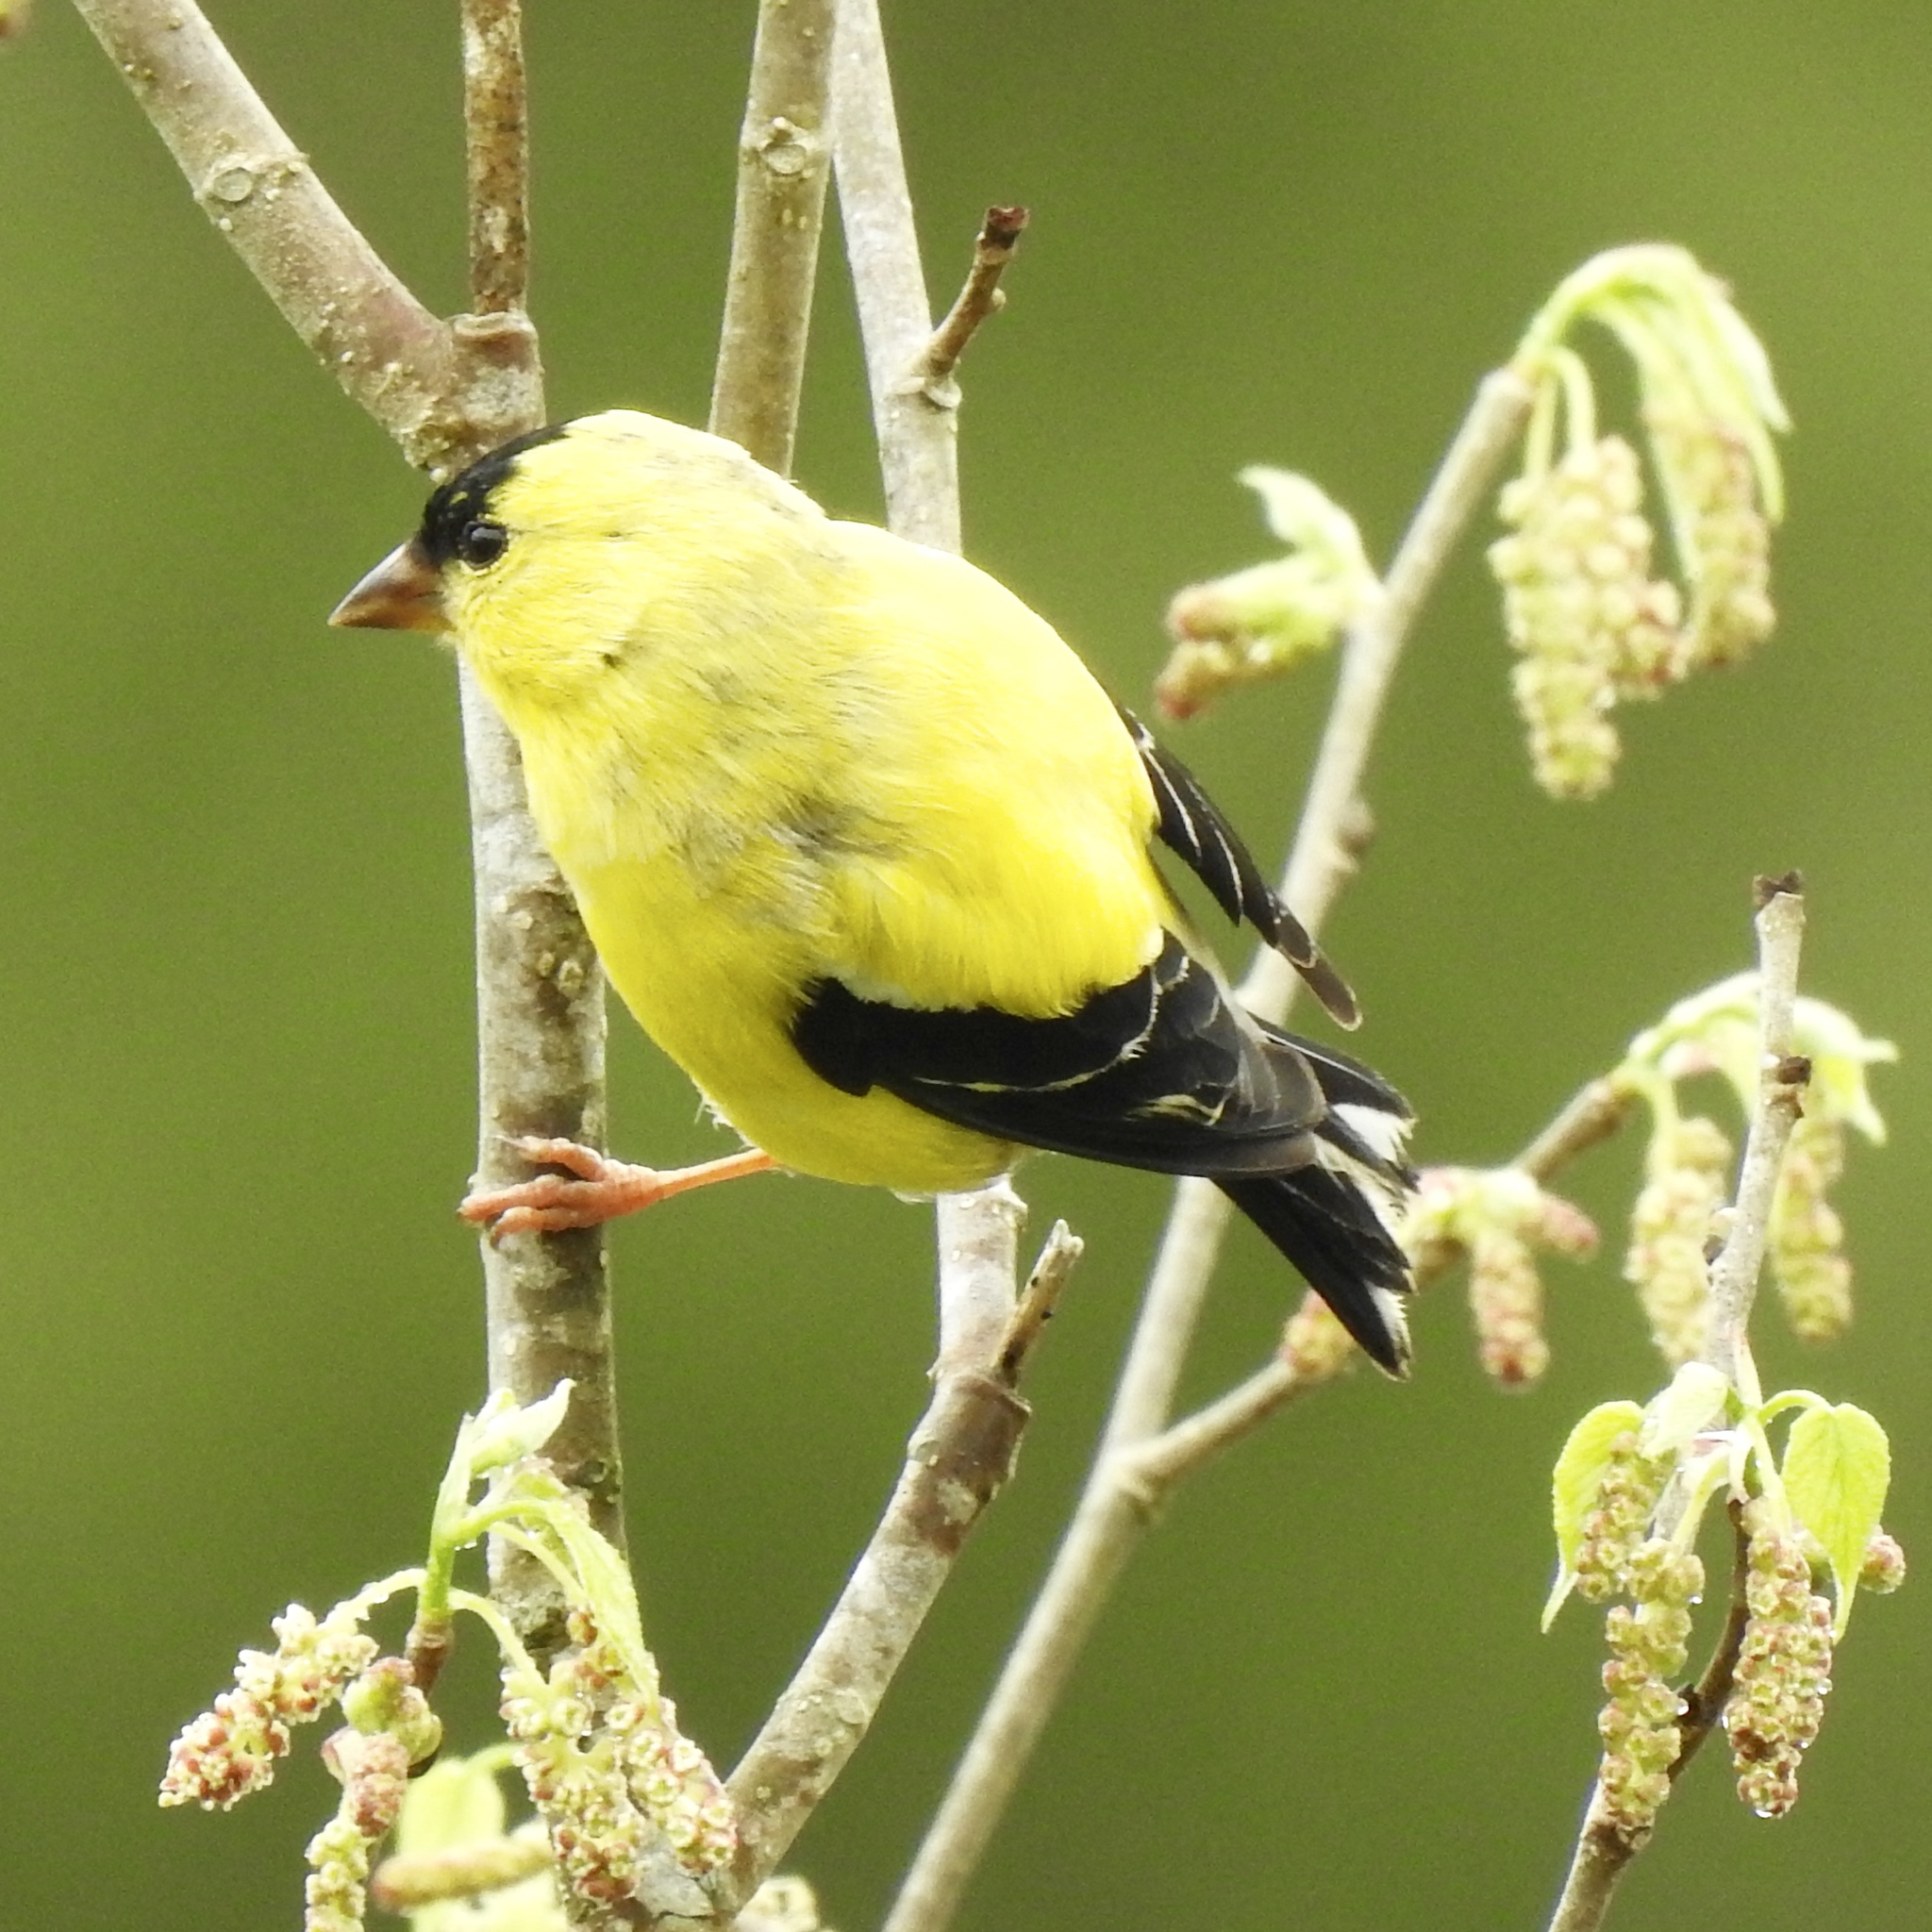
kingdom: Animalia
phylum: Chordata
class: Aves
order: Passeriformes
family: Fringillidae
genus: Spinus
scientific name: Spinus tristis
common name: American goldfinch
